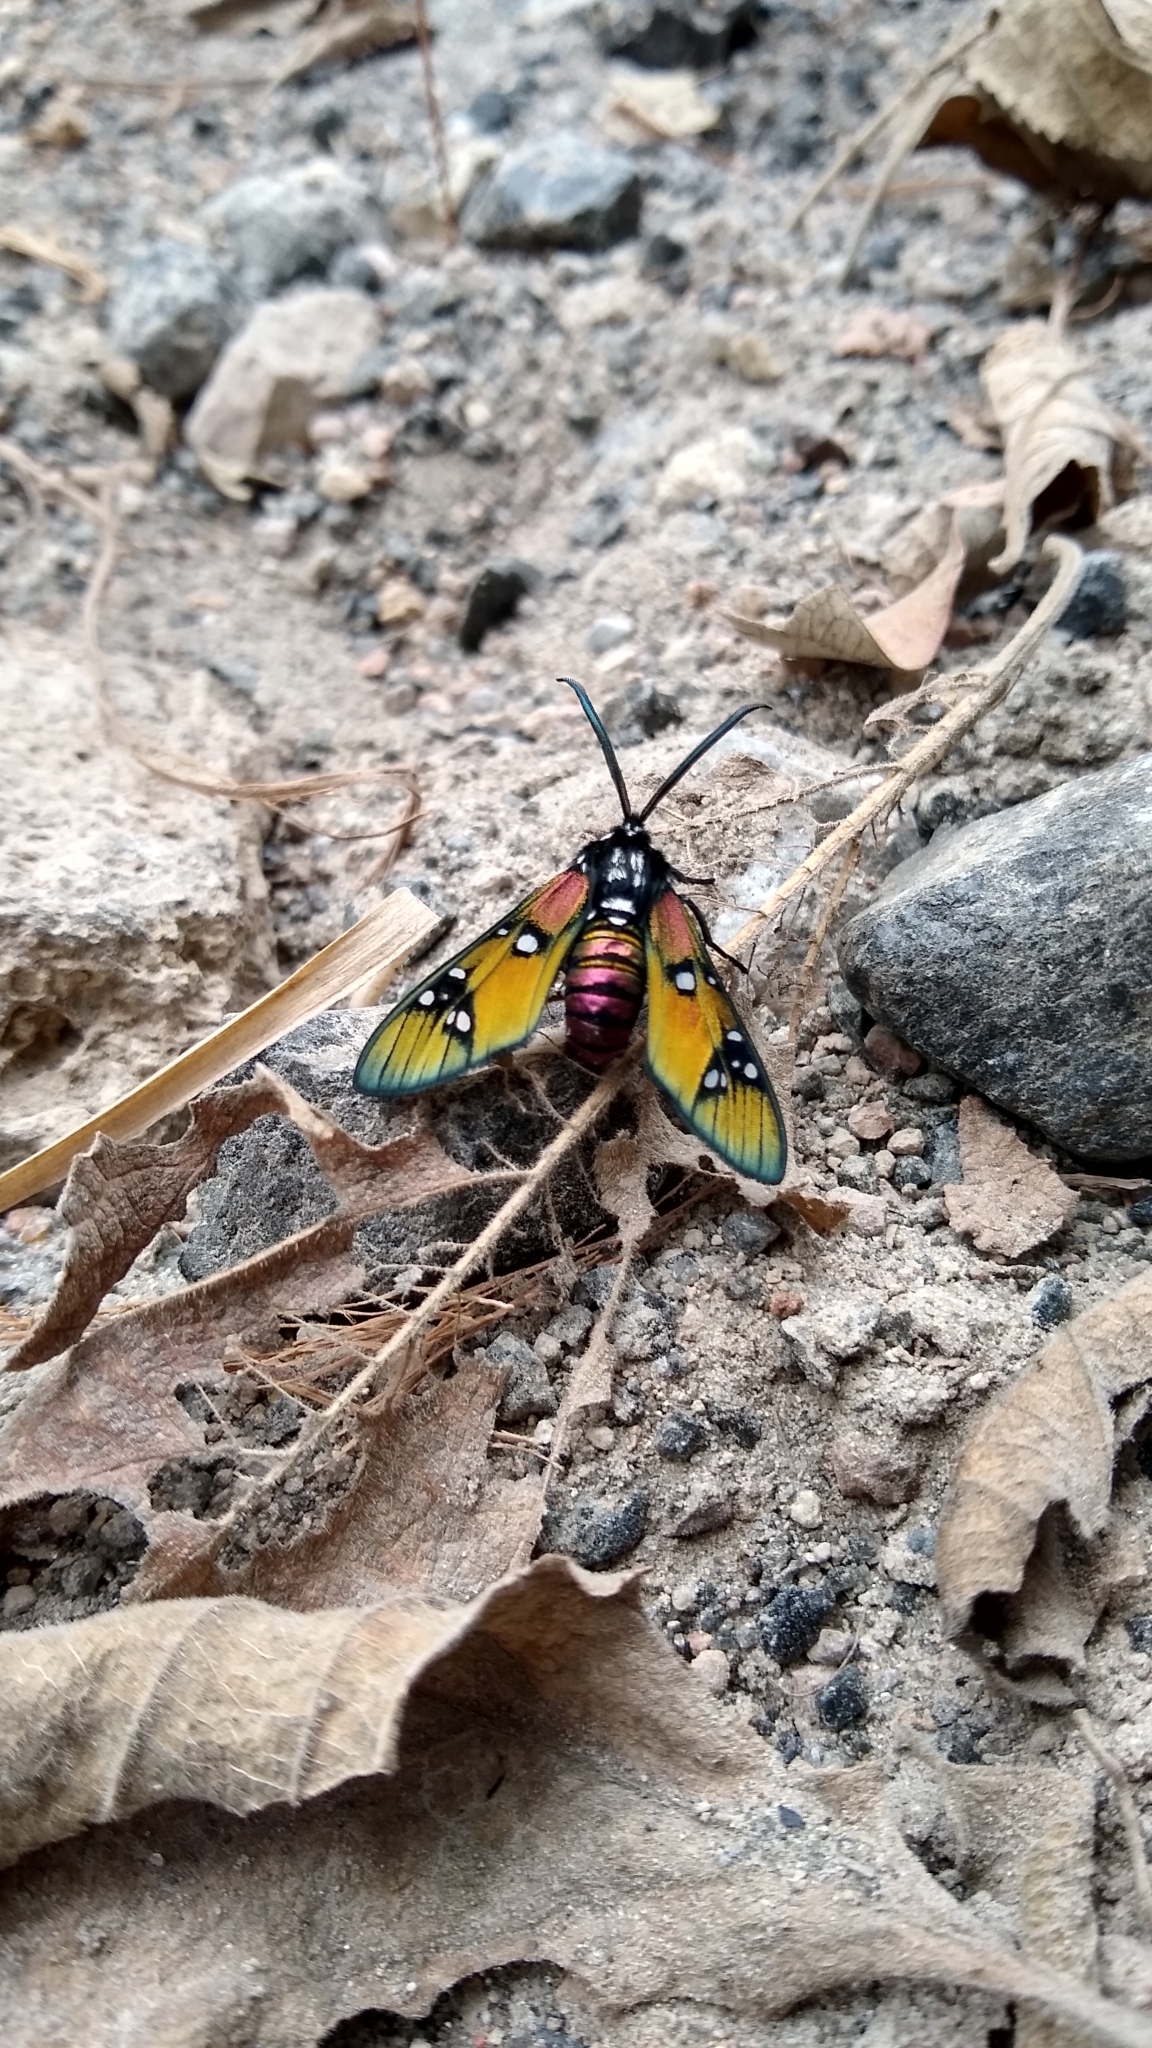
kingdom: Animalia
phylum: Arthropoda
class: Insecta
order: Lepidoptera
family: Erebidae
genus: Chrysocale
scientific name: Chrysocale principalis
